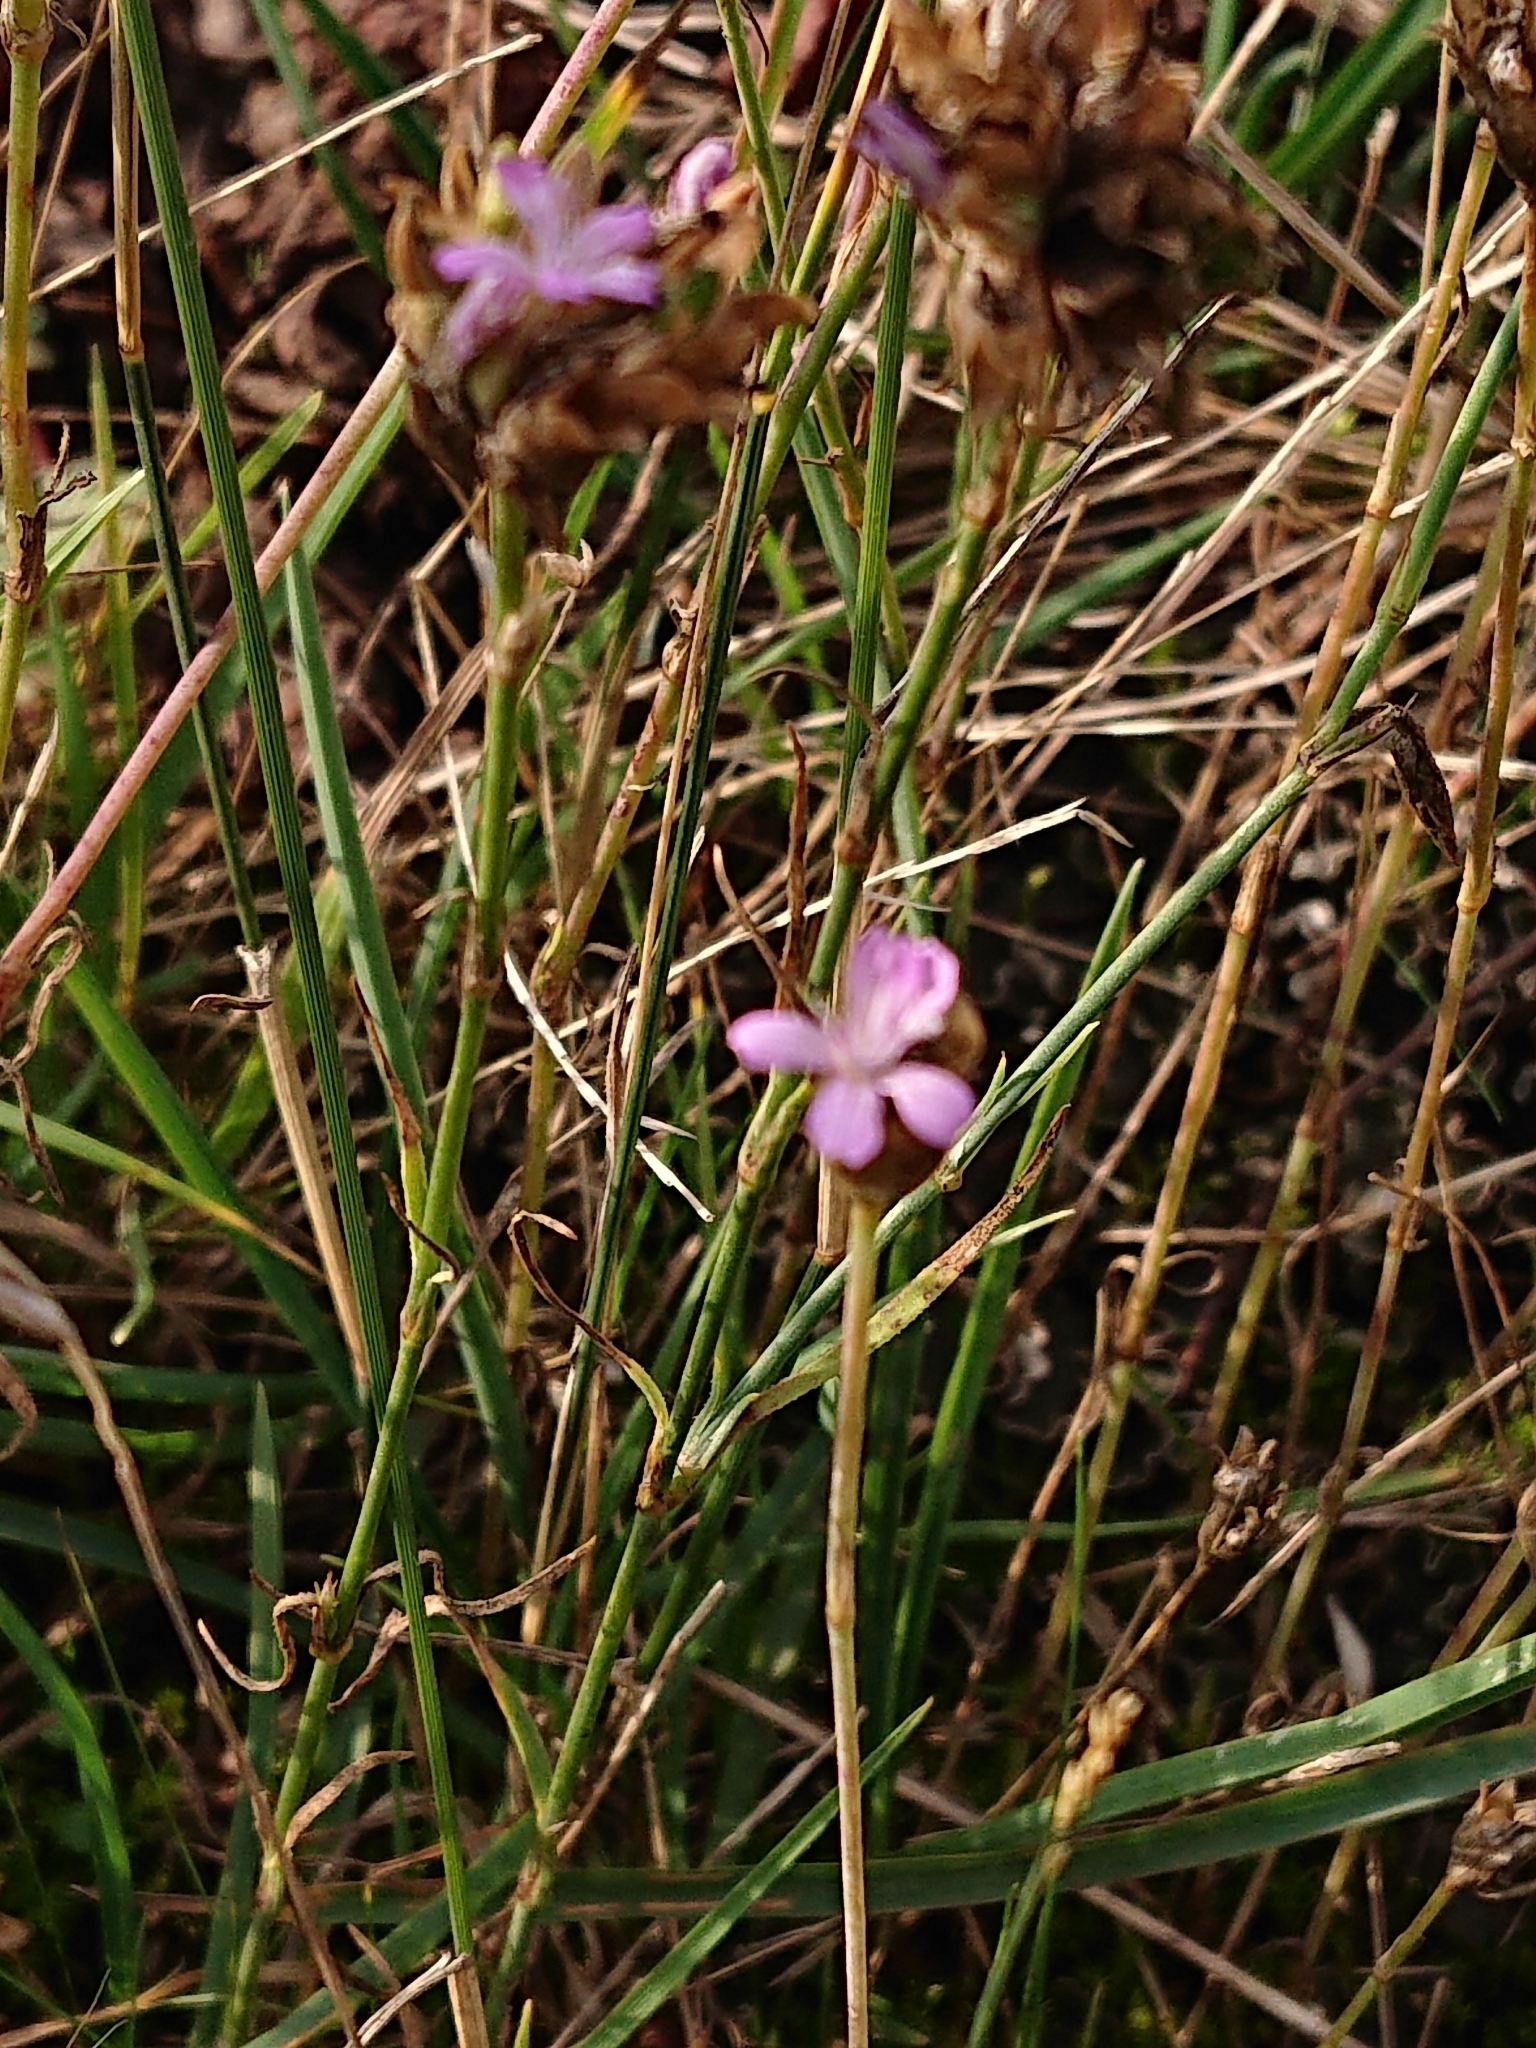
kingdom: Plantae
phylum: Tracheophyta
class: Magnoliopsida
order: Caryophyllales
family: Caryophyllaceae
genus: Petrorhagia
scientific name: Petrorhagia prolifera
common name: Proliferous pink
